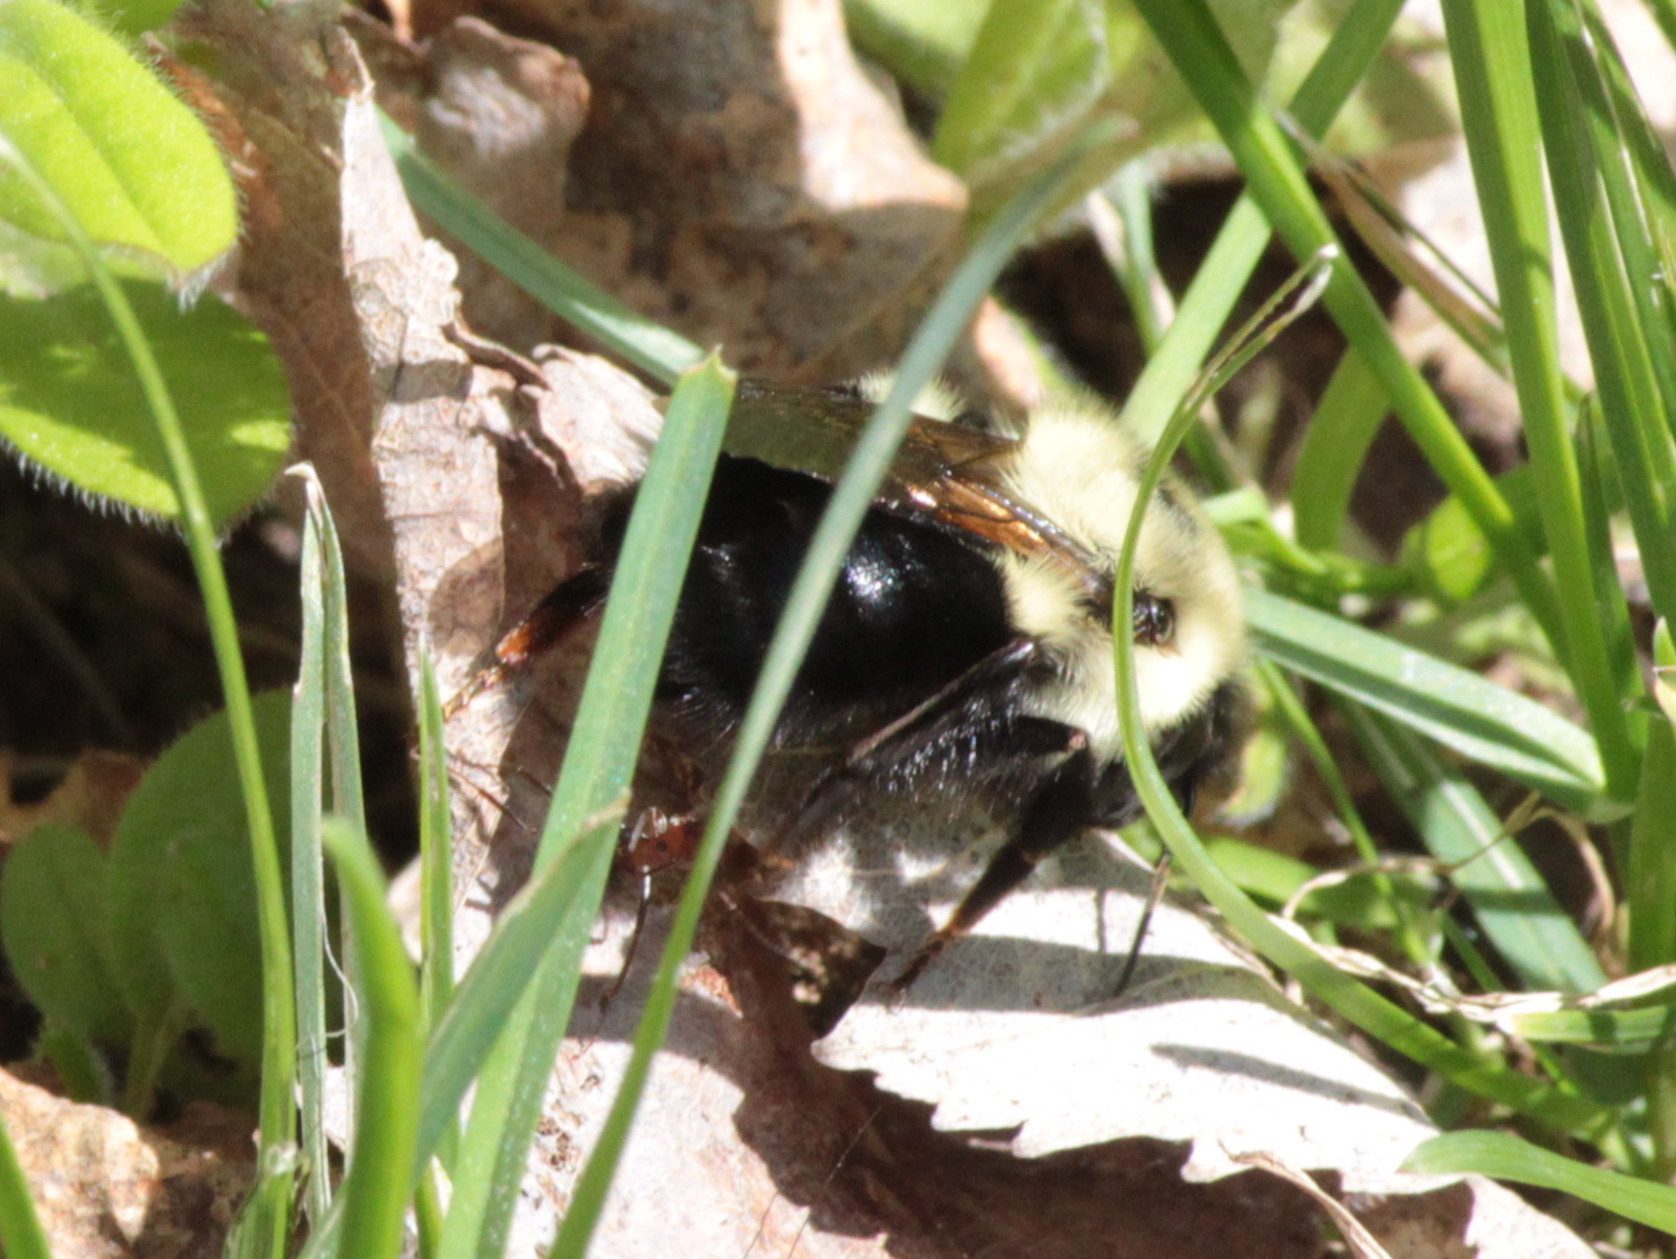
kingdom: Animalia
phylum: Arthropoda
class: Insecta
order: Hymenoptera
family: Apidae
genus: Bombus
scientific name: Bombus bimaculatus
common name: Two-spotted bumble bee
